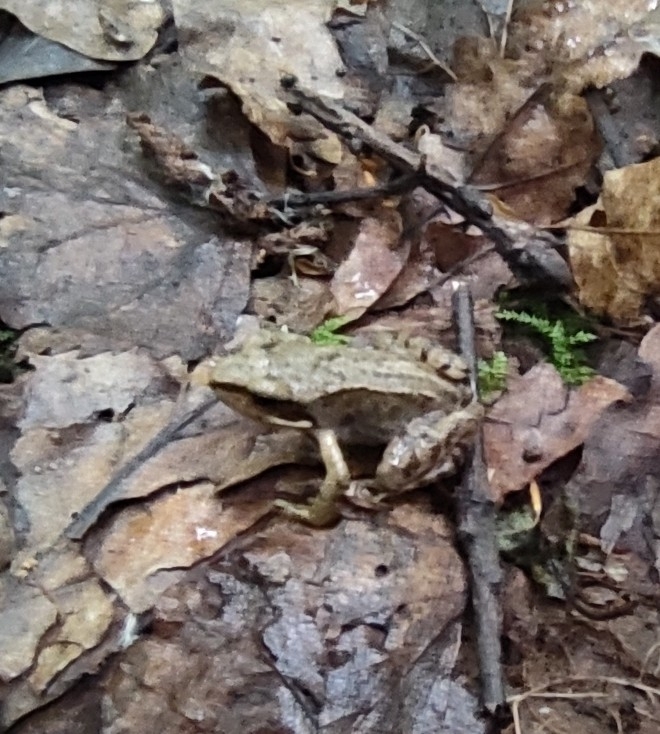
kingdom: Animalia
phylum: Chordata
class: Amphibia
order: Anura
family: Ranidae
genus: Rana
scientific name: Rana temporaria
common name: Common frog
